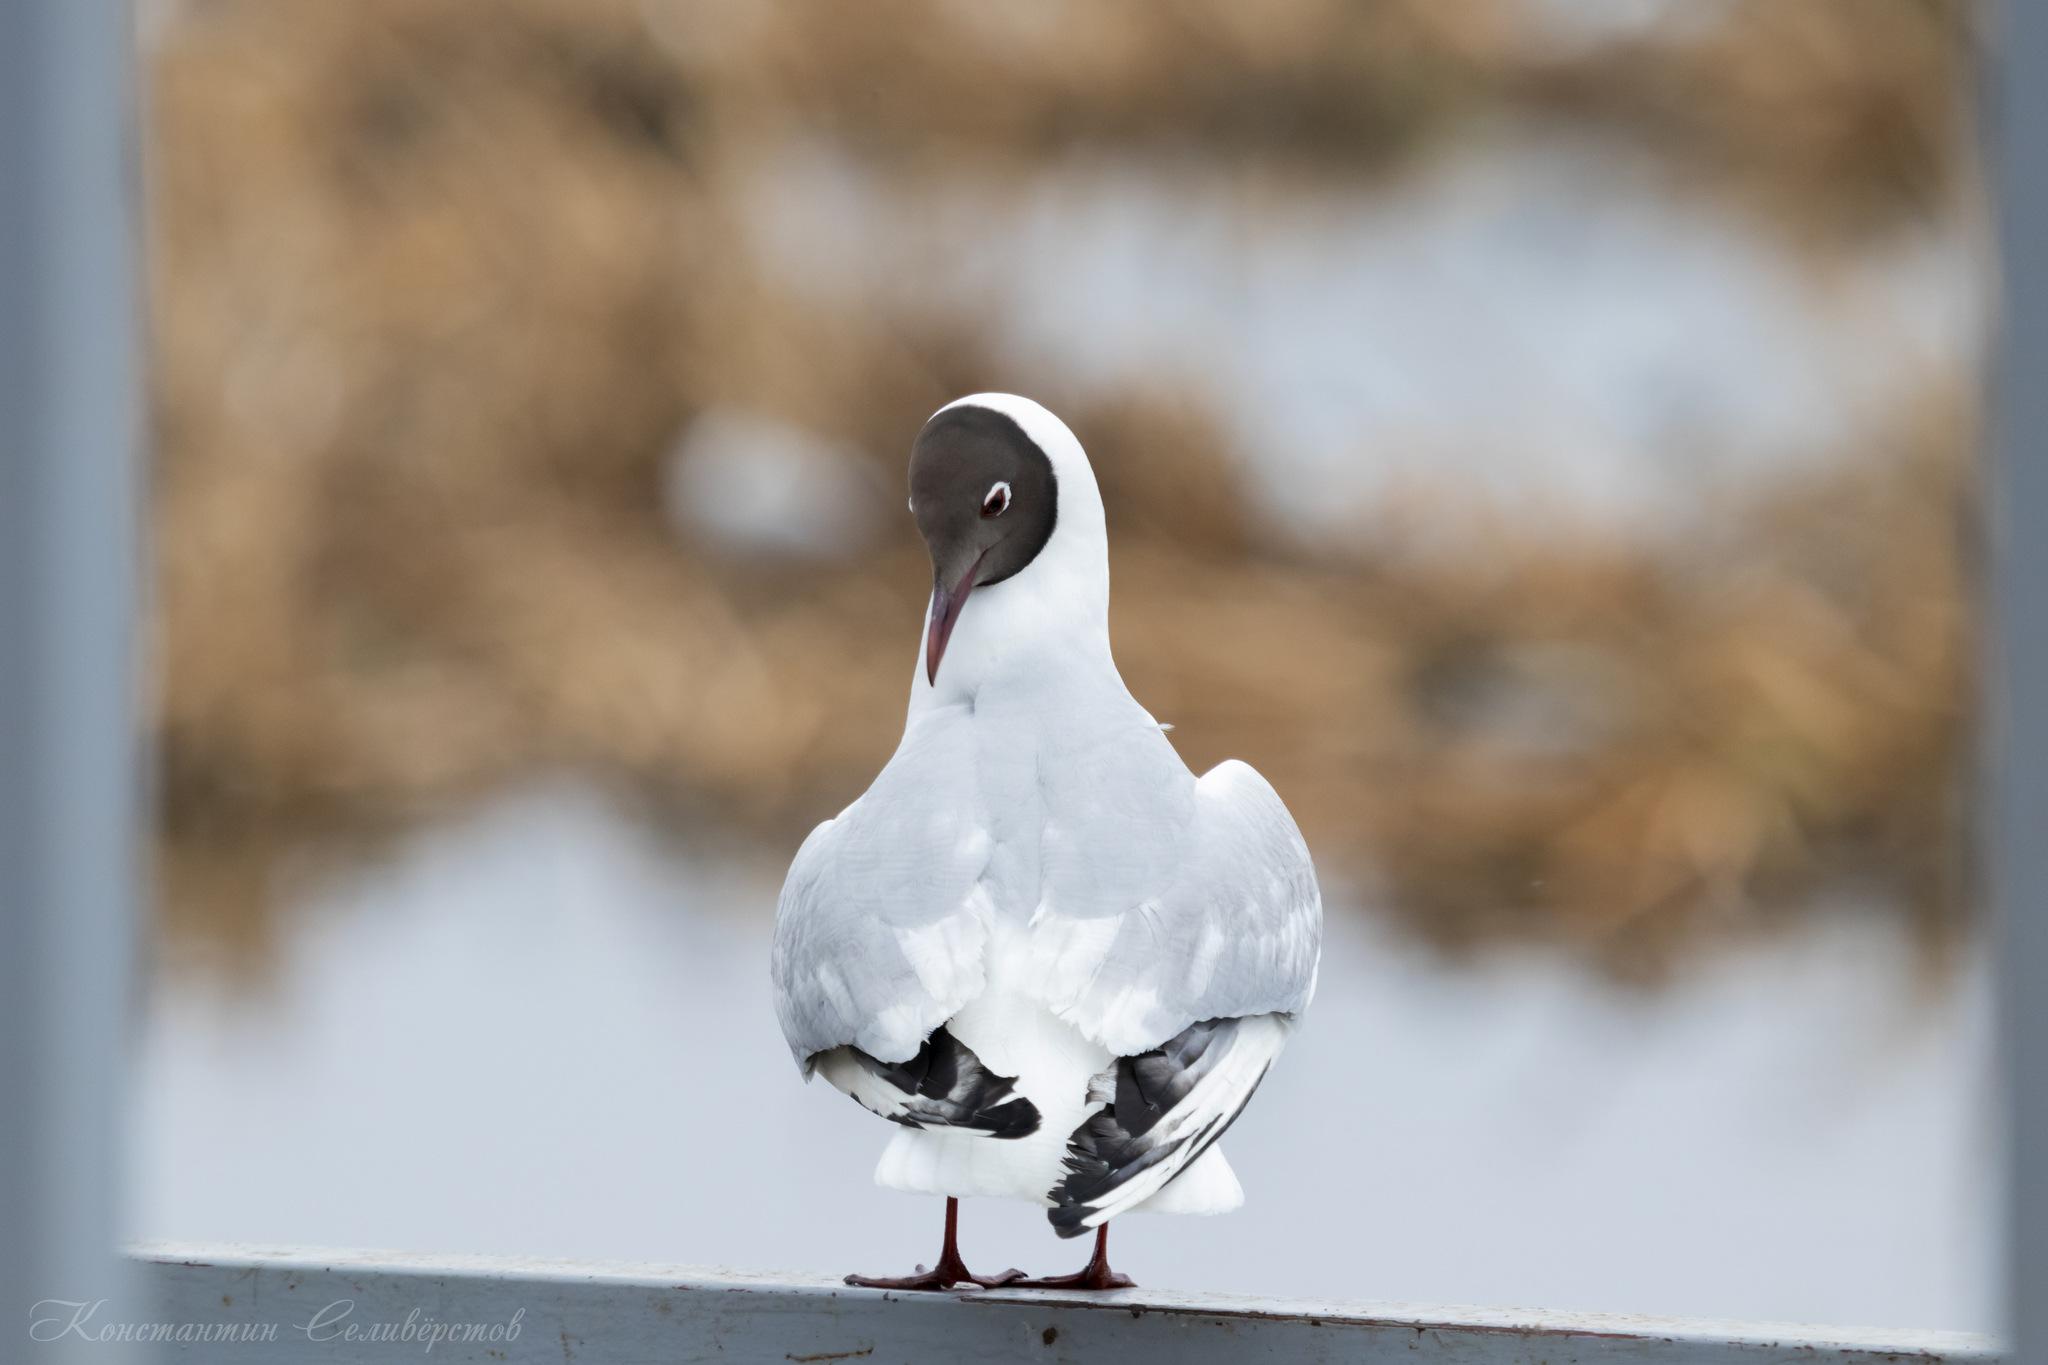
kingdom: Animalia
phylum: Chordata
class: Aves
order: Charadriiformes
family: Laridae
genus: Chroicocephalus
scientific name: Chroicocephalus ridibundus
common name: Black-headed gull
